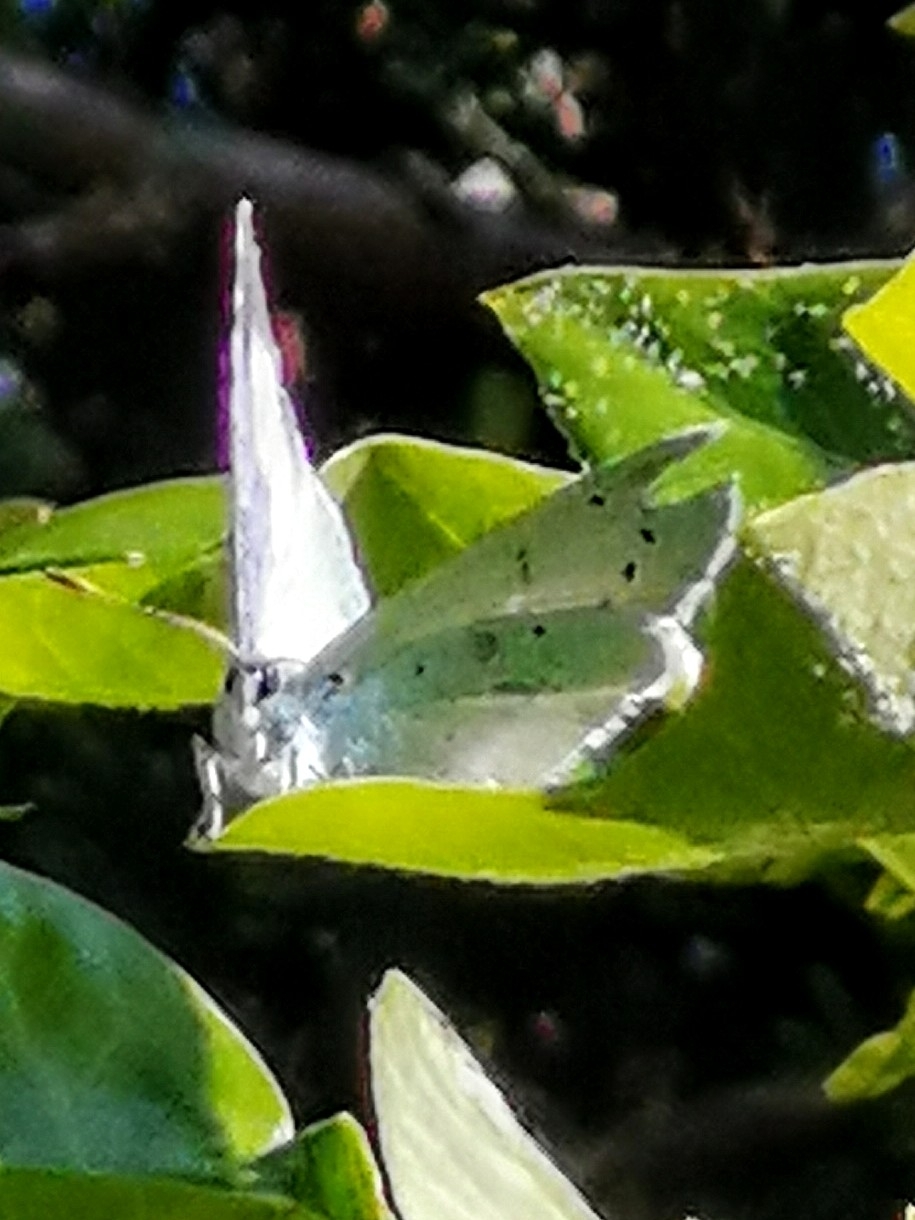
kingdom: Animalia
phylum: Arthropoda
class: Insecta
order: Lepidoptera
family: Lycaenidae
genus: Celastrina
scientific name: Celastrina argiolus
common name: Holly blue
